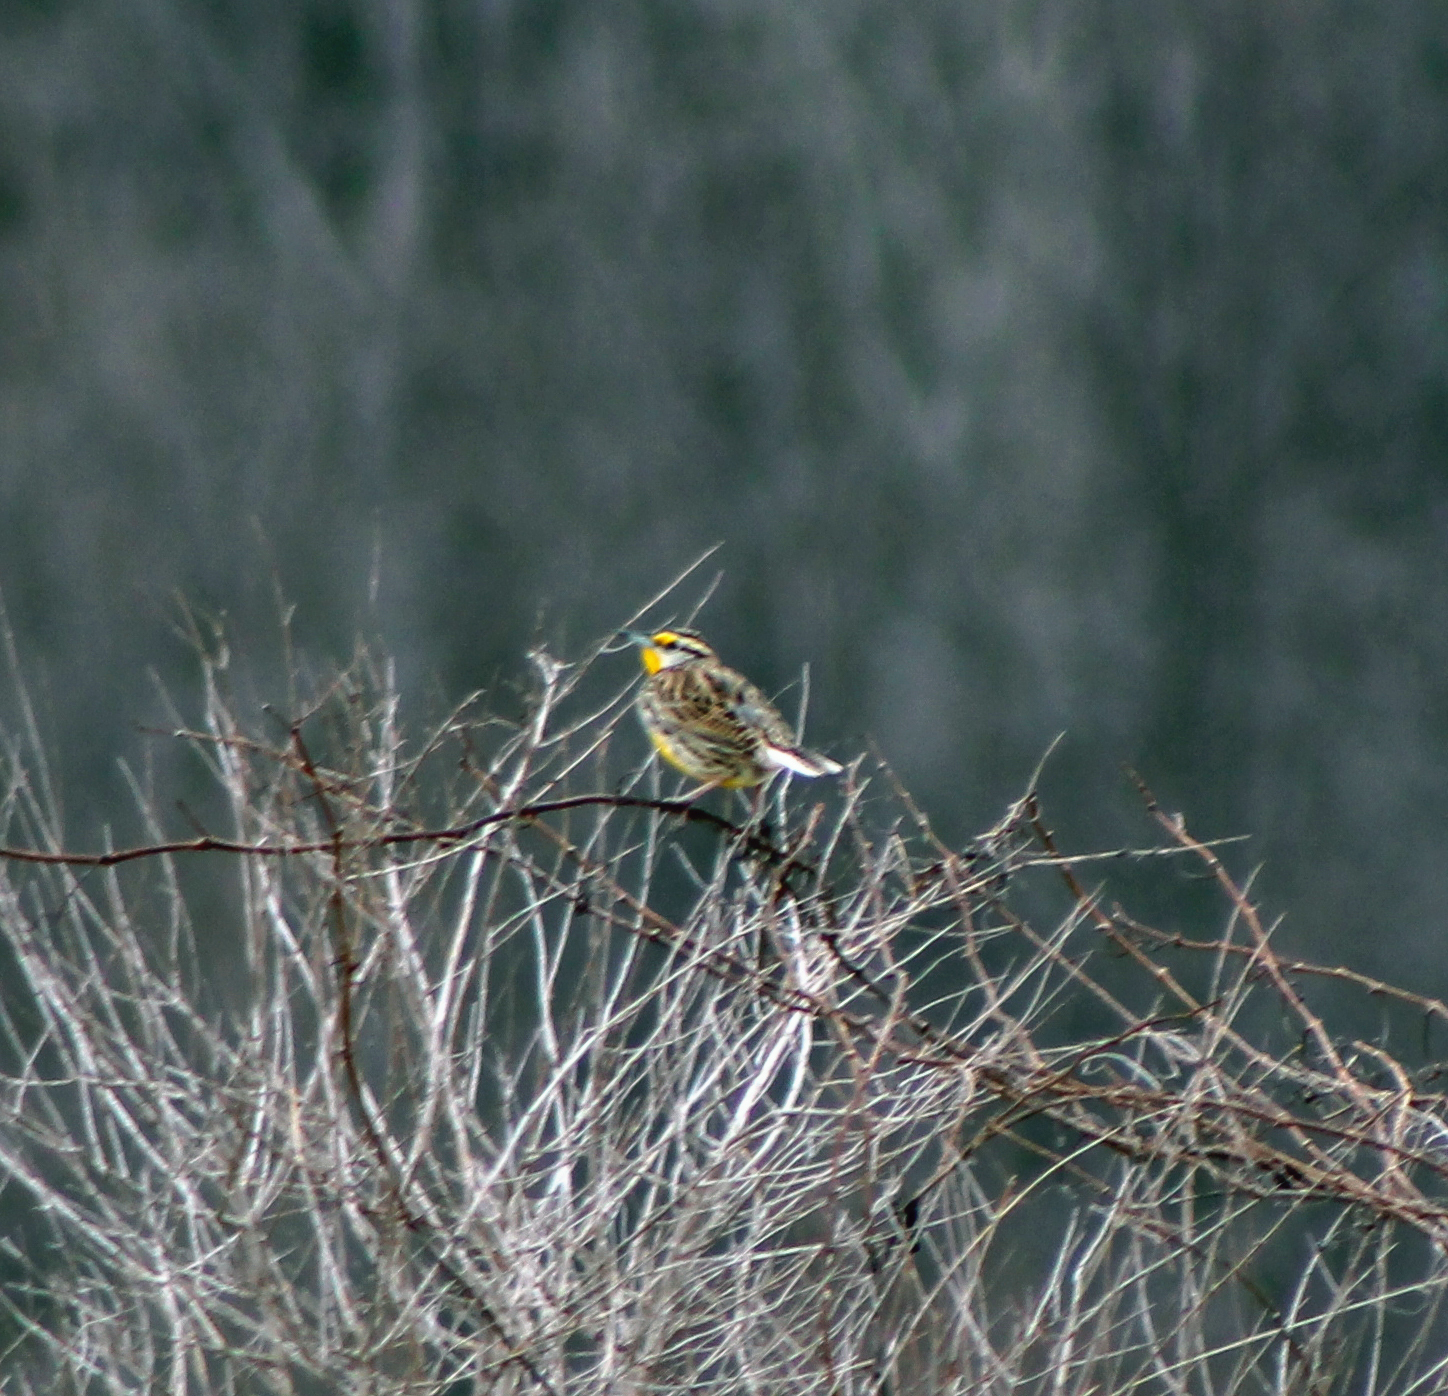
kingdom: Animalia
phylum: Chordata
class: Aves
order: Passeriformes
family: Icteridae
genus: Sturnella
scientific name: Sturnella magna
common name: Eastern meadowlark
